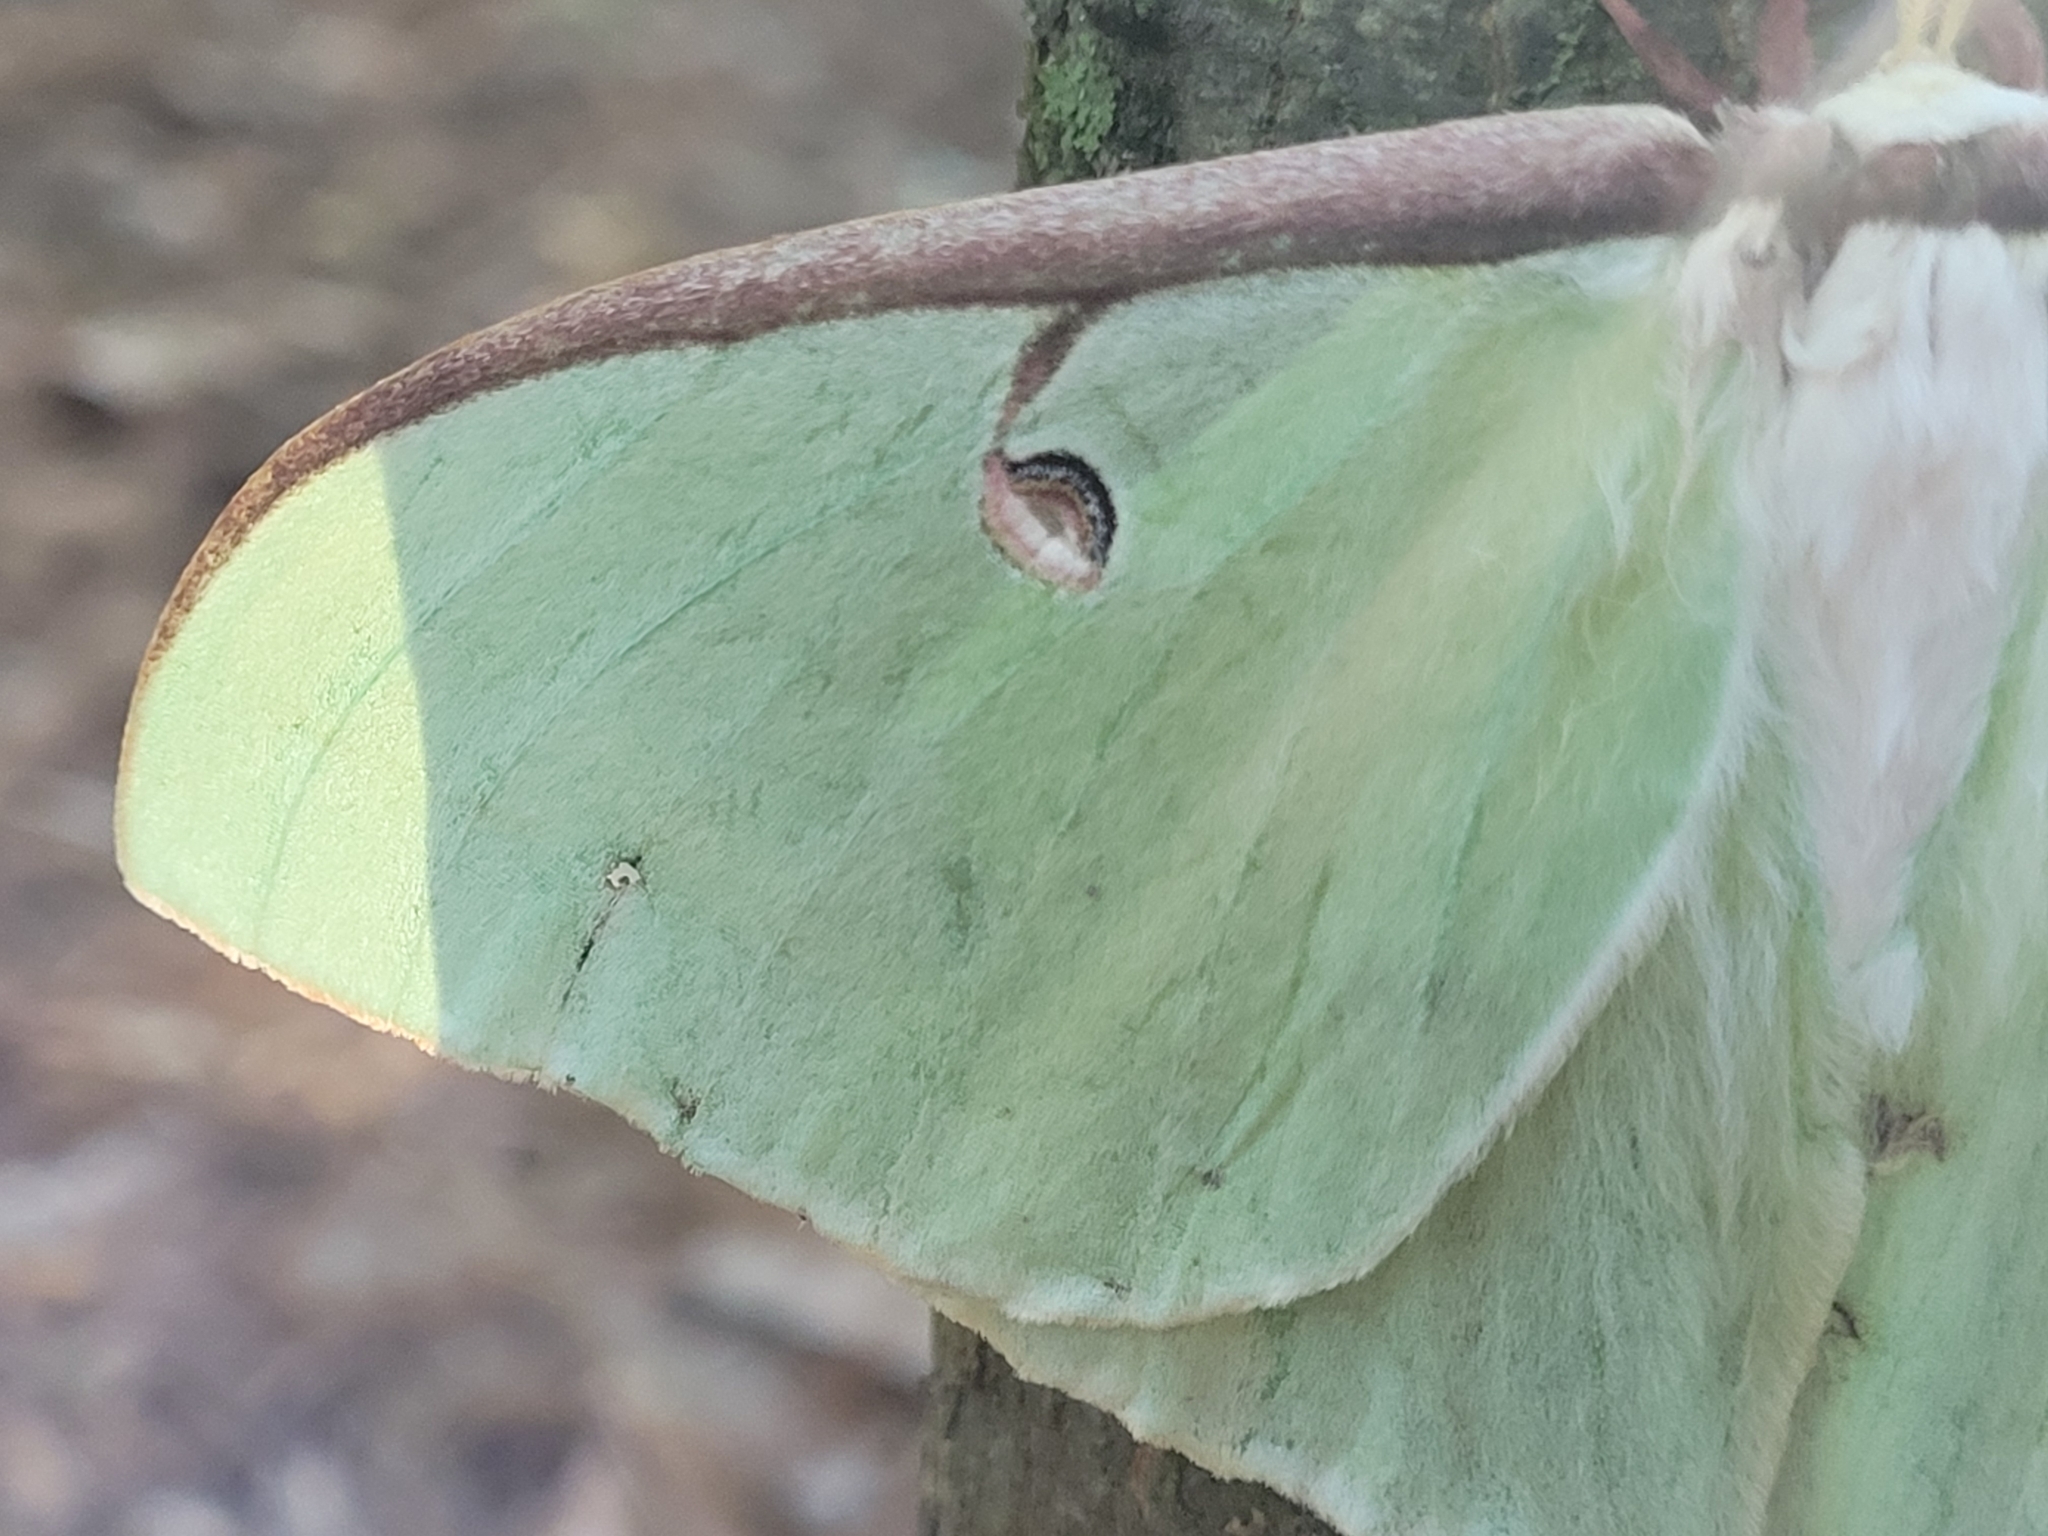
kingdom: Animalia
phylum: Arthropoda
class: Insecta
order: Lepidoptera
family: Saturniidae
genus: Actias
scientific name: Actias luna
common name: Luna moth
